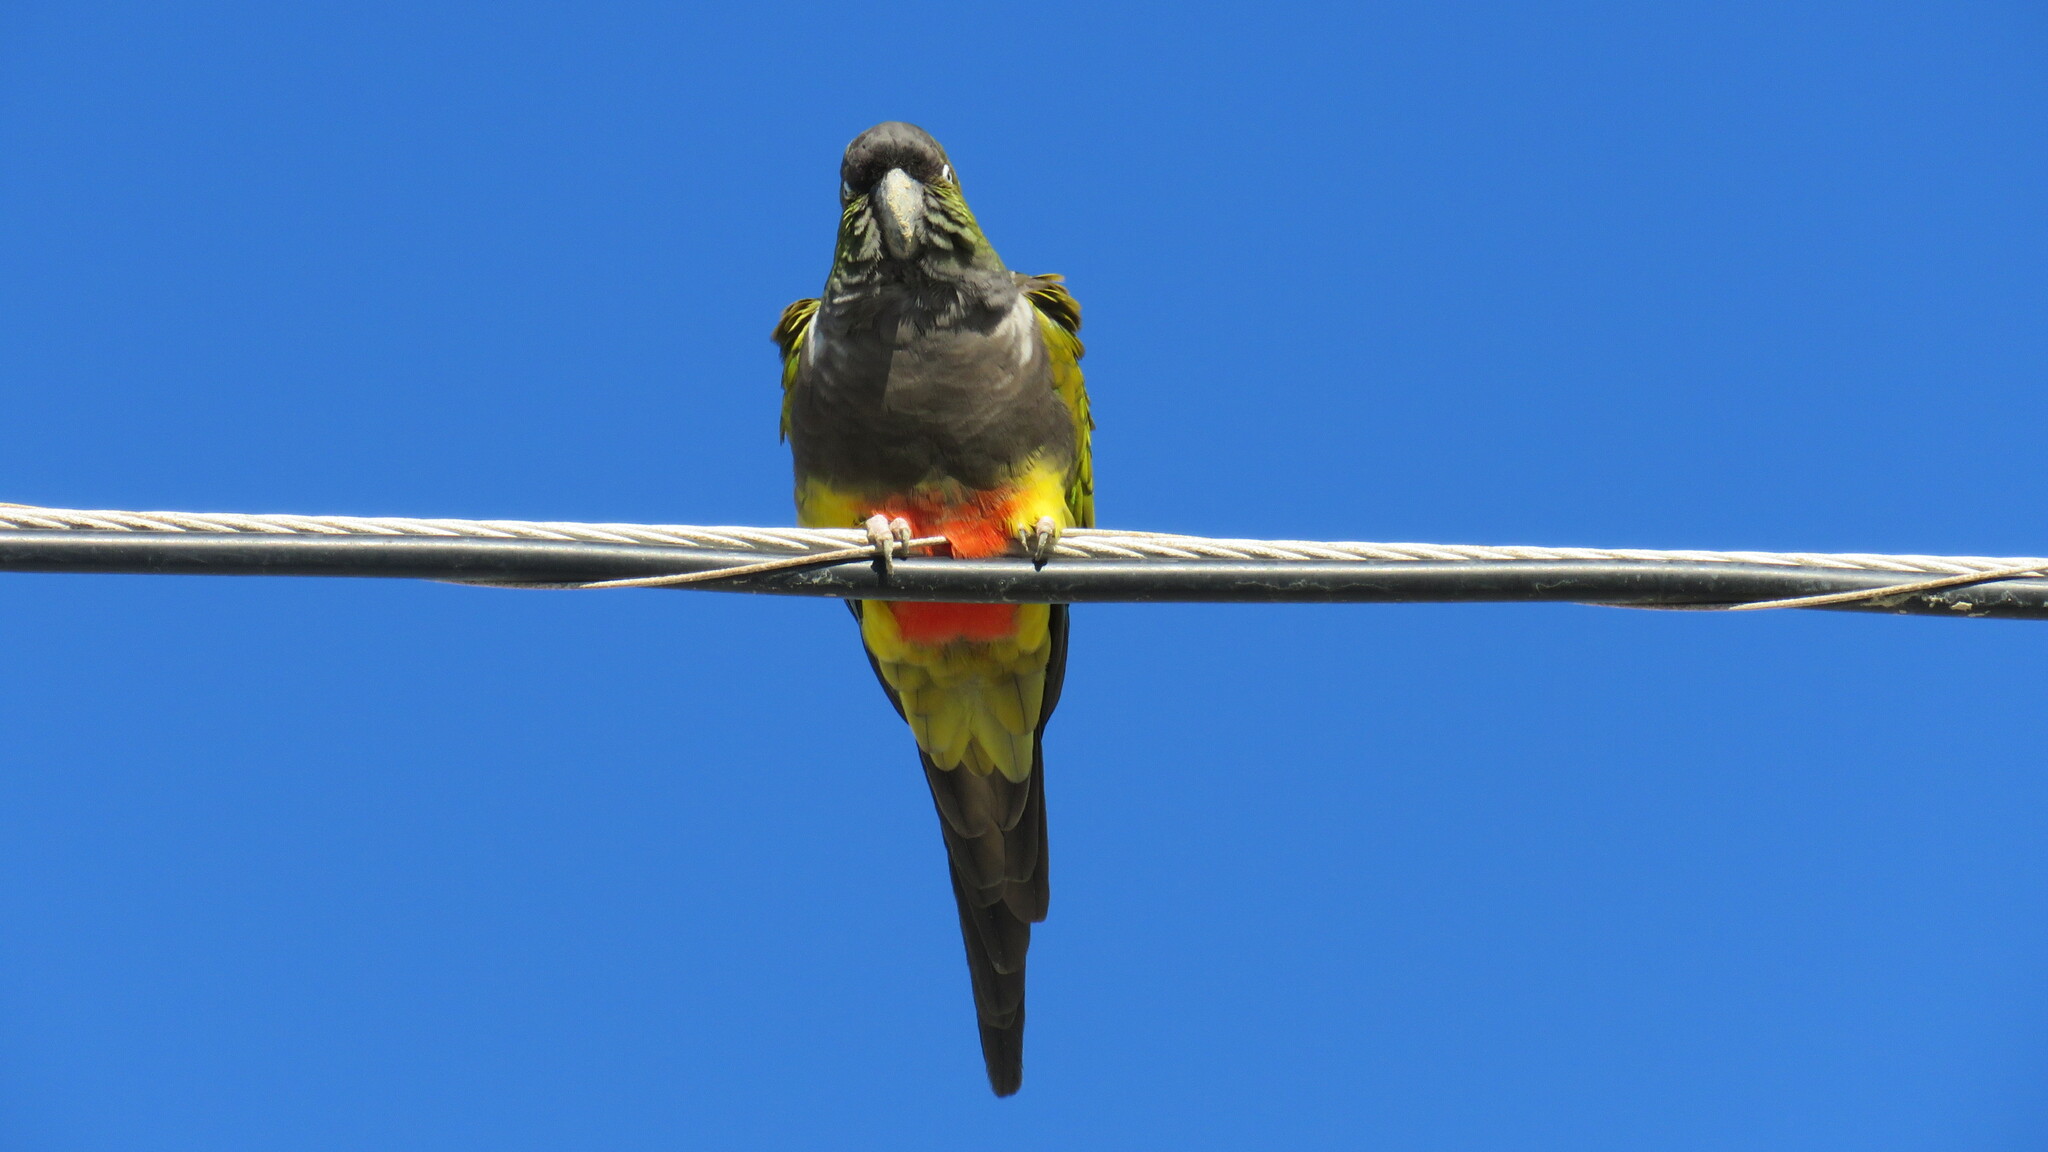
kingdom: Animalia
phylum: Chordata
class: Aves
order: Psittaciformes
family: Psittacidae
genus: Cyanoliseus
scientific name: Cyanoliseus patagonus
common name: Burrowing parrot
